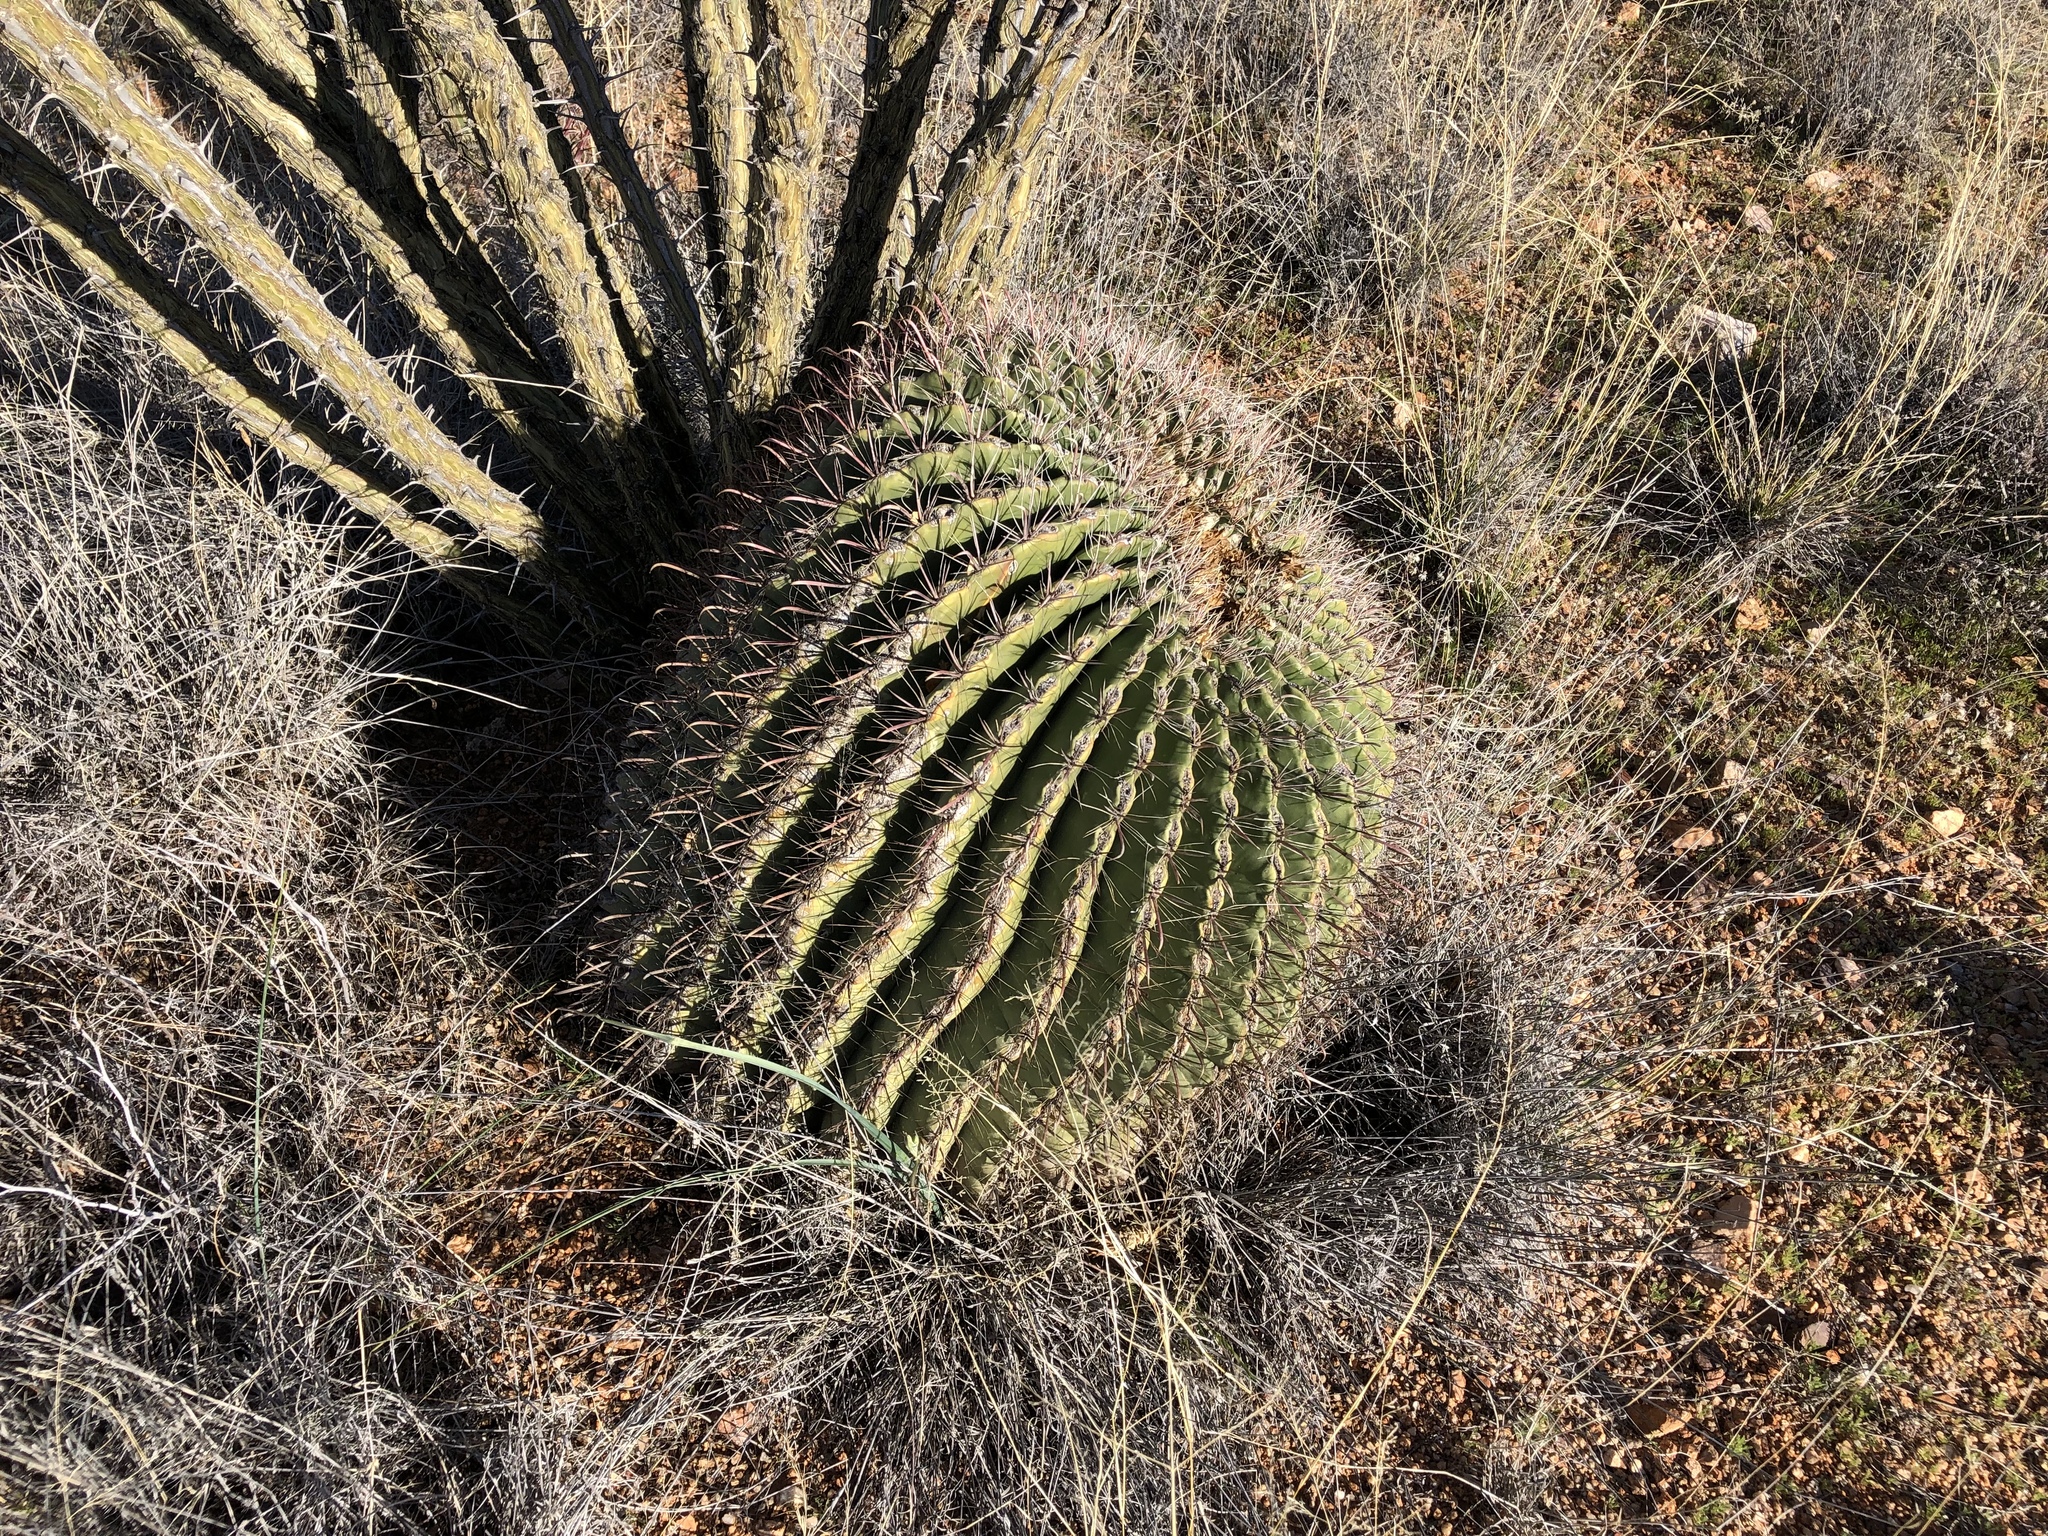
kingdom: Plantae
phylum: Tracheophyta
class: Magnoliopsida
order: Caryophyllales
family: Cactaceae
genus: Ferocactus
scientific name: Ferocactus wislizeni
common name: Candy barrel cactus
